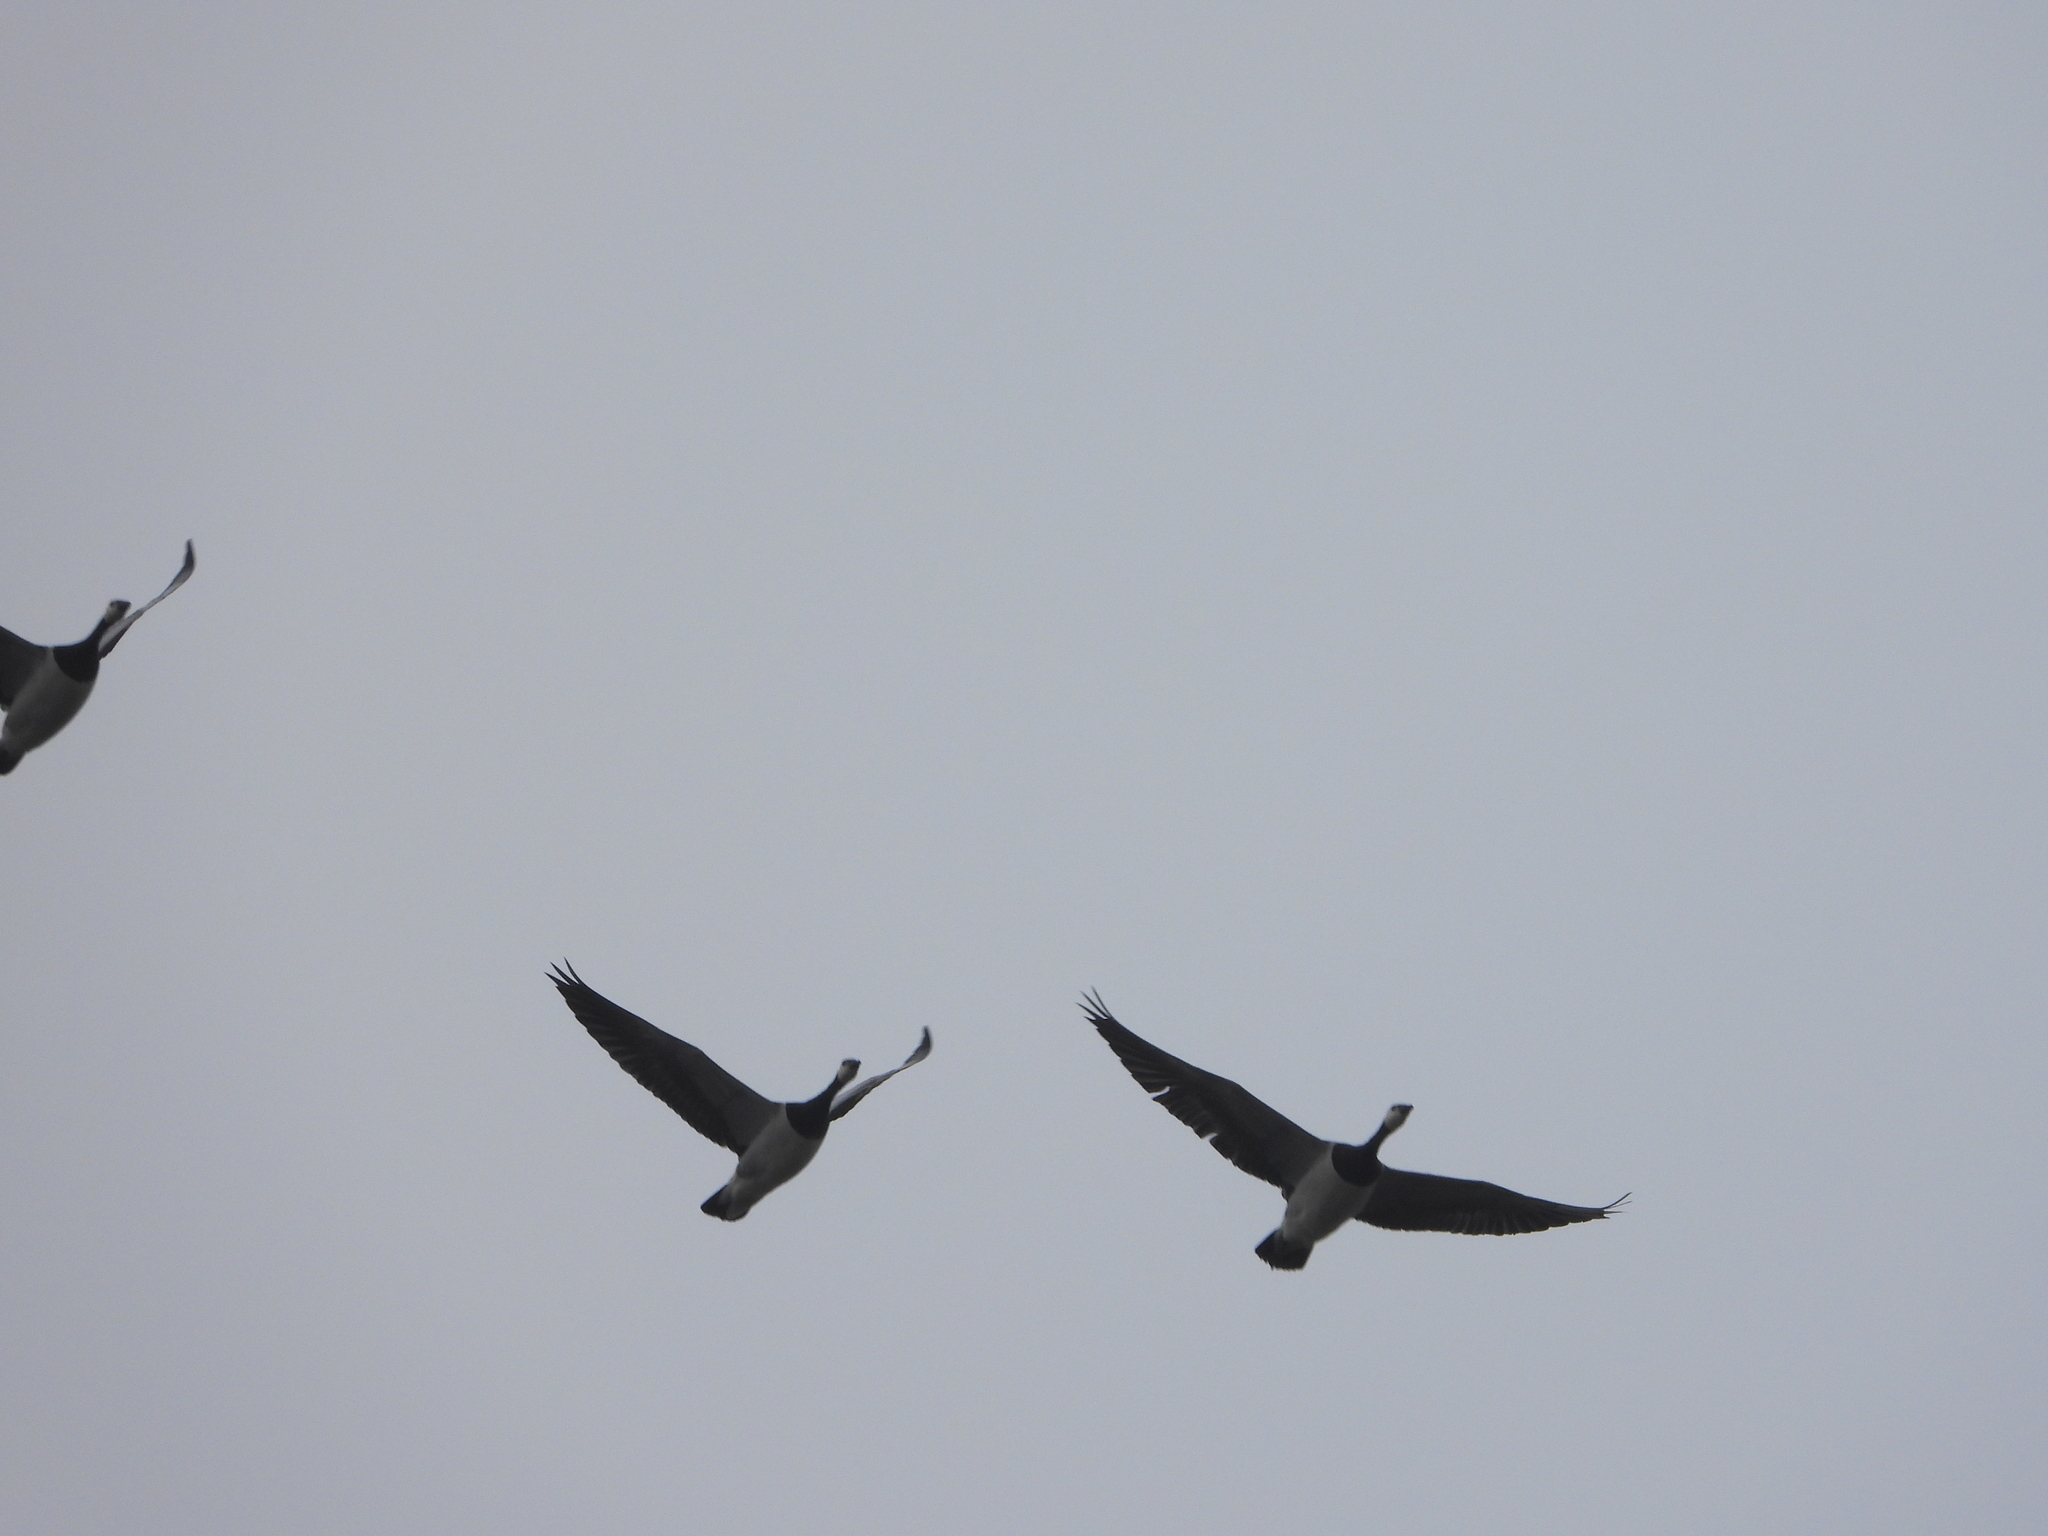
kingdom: Animalia
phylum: Chordata
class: Aves
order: Anseriformes
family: Anatidae
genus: Branta
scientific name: Branta leucopsis
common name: Barnacle goose
